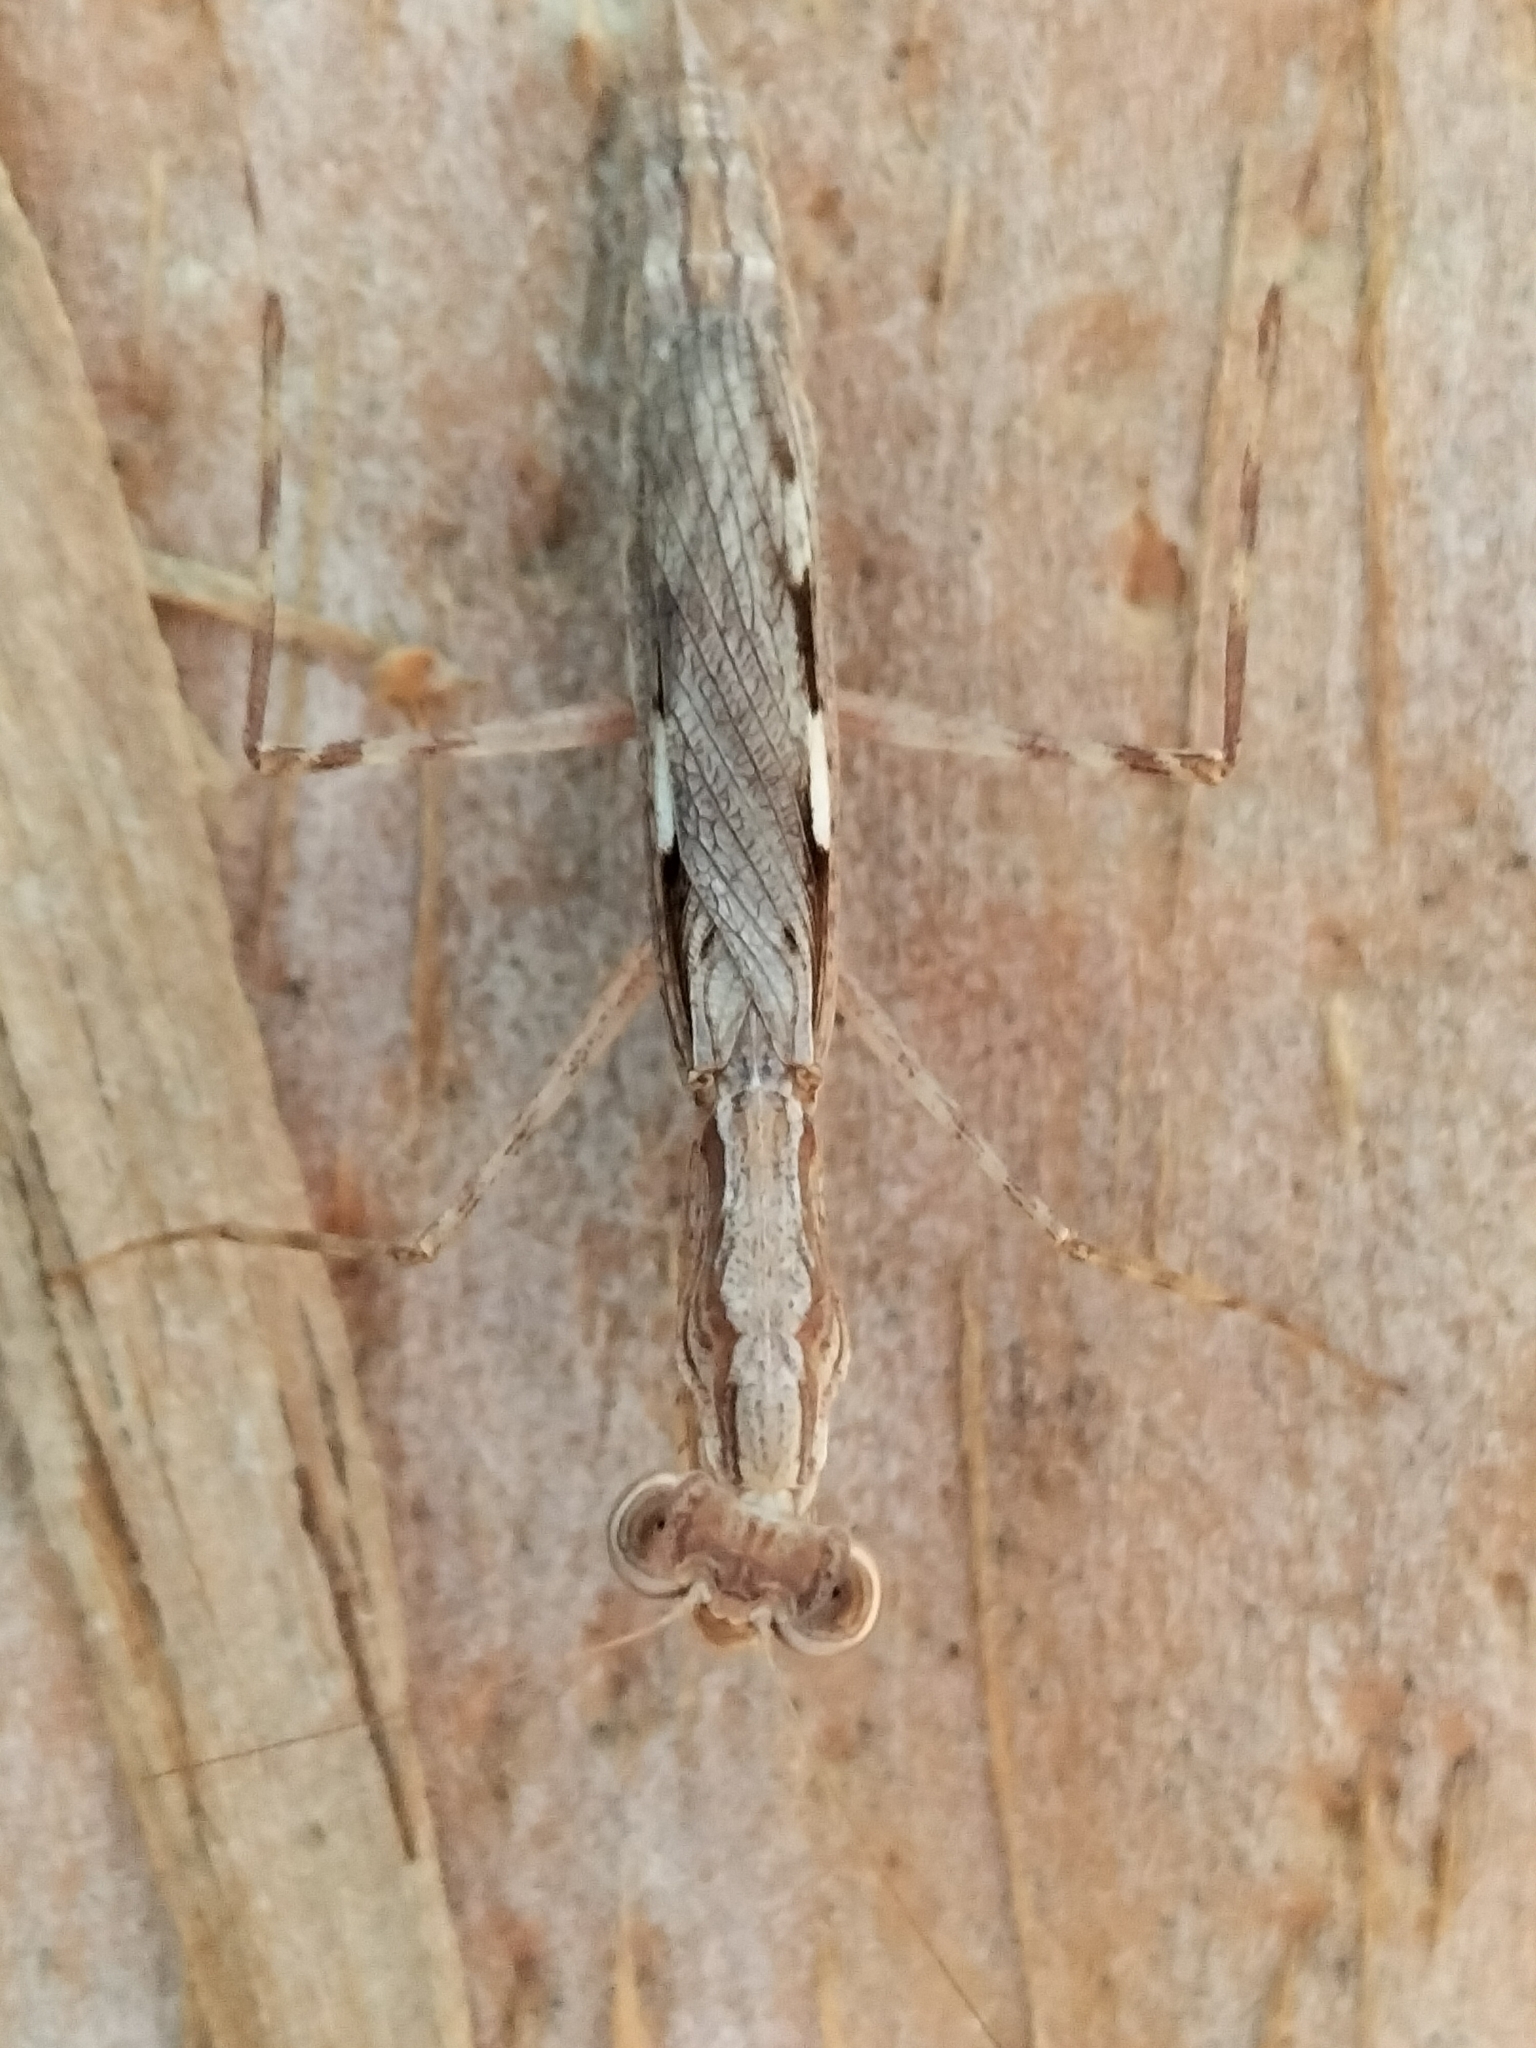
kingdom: Animalia
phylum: Arthropoda
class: Insecta
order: Mantodea
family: Nanomantidae
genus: Ima
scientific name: Ima fusca
